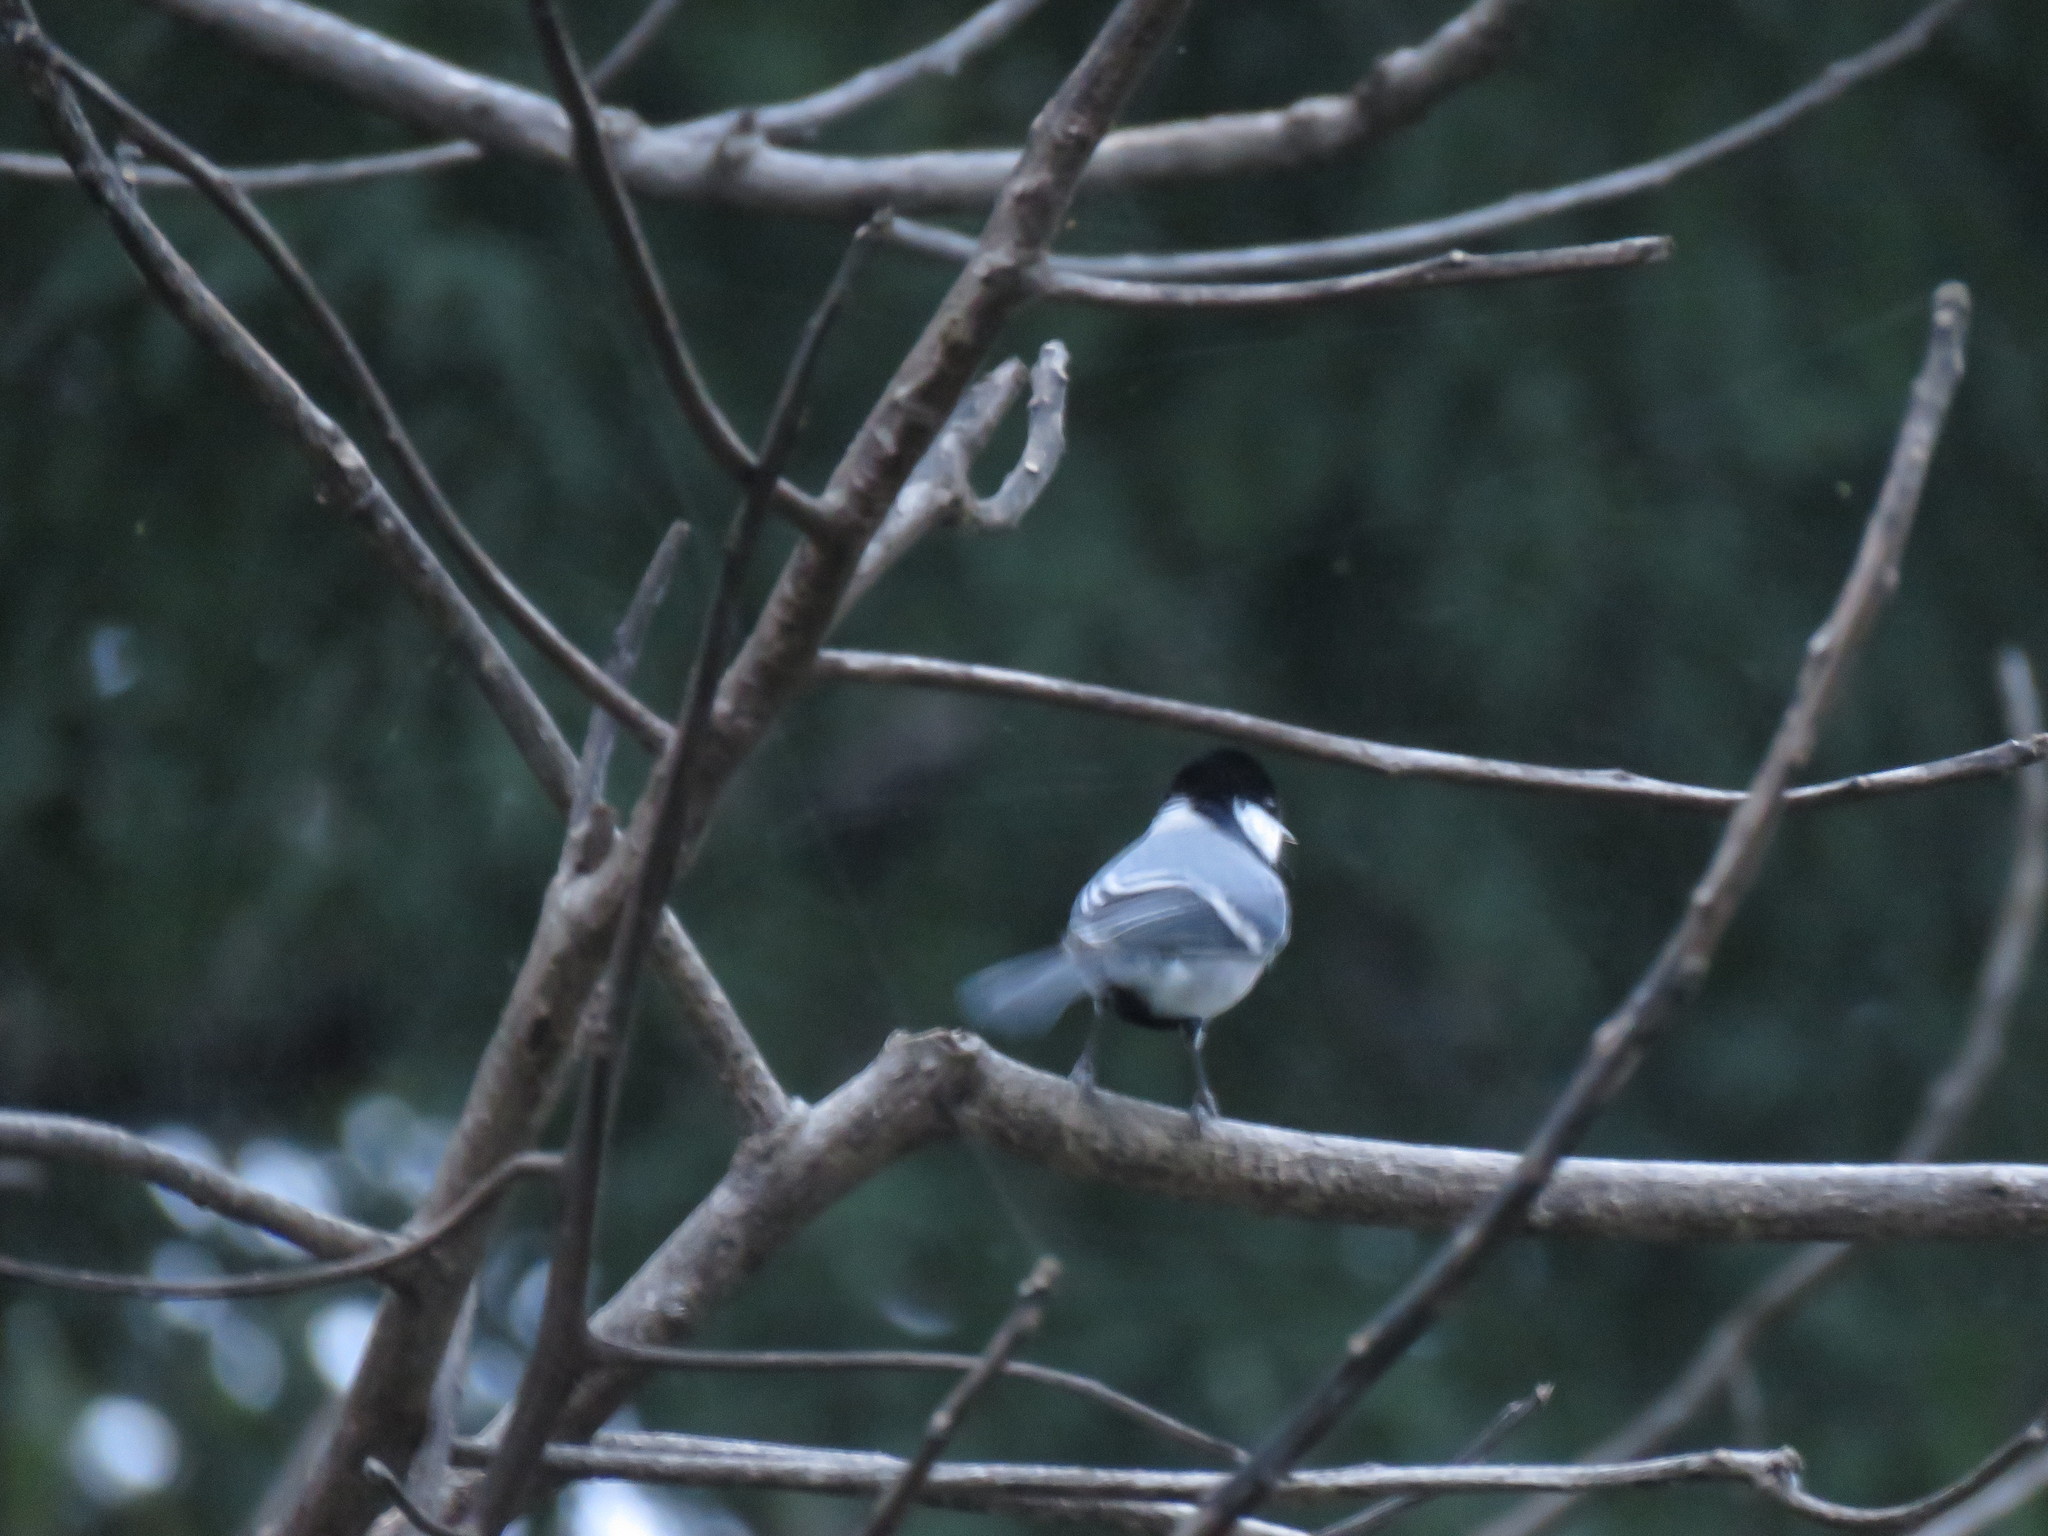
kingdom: Animalia
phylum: Chordata
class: Aves
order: Passeriformes
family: Paridae
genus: Parus
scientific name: Parus cinereus
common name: Cinereous tit
